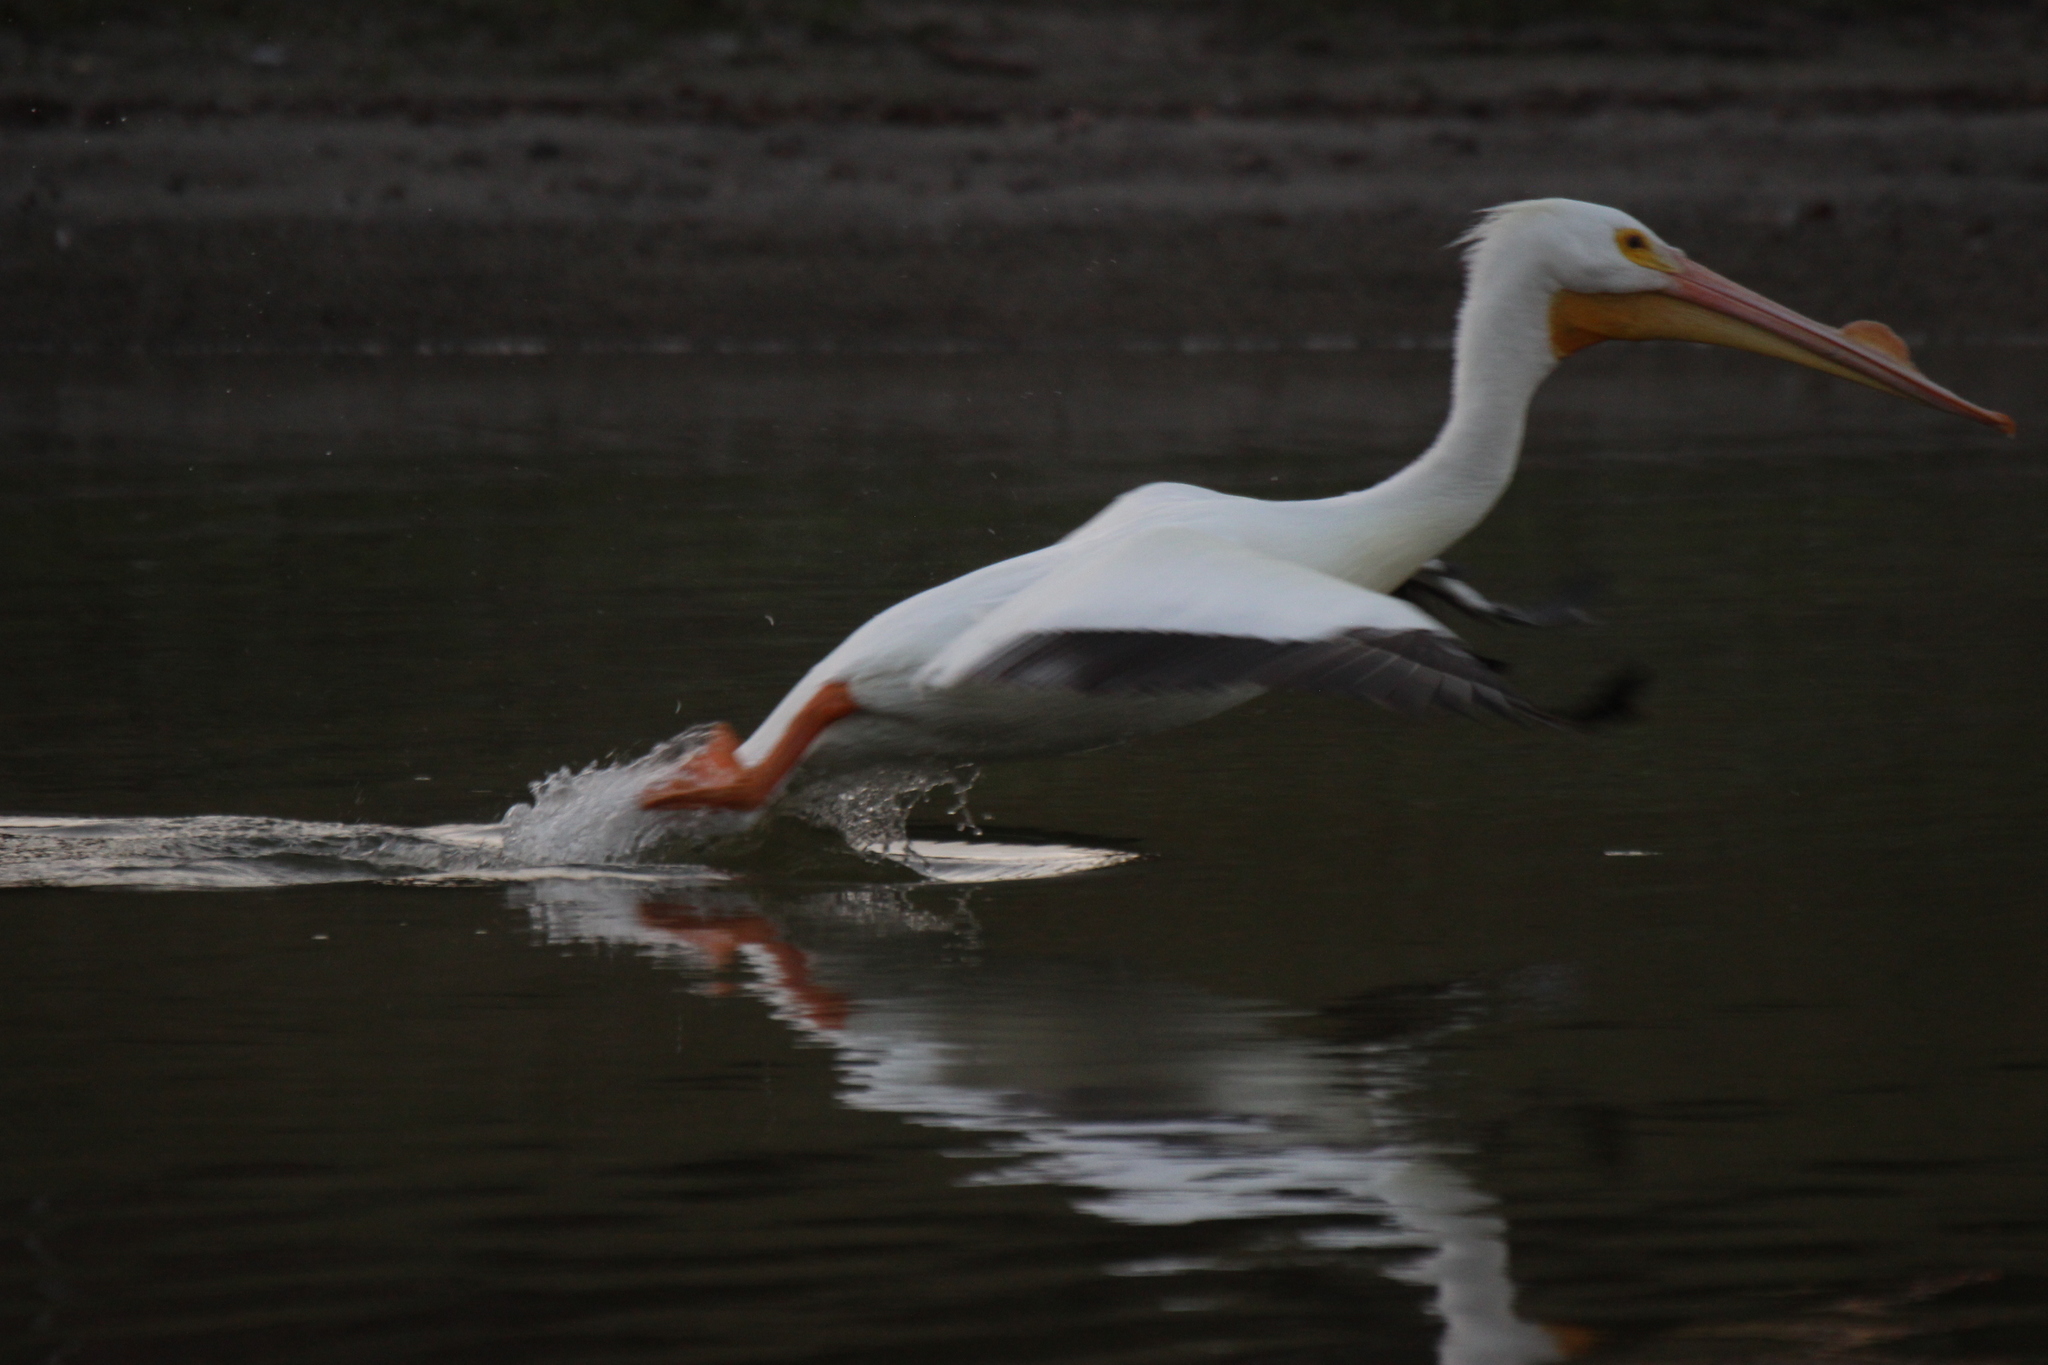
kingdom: Animalia
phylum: Chordata
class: Aves
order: Pelecaniformes
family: Pelecanidae
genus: Pelecanus
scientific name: Pelecanus erythrorhynchos
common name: American white pelican
